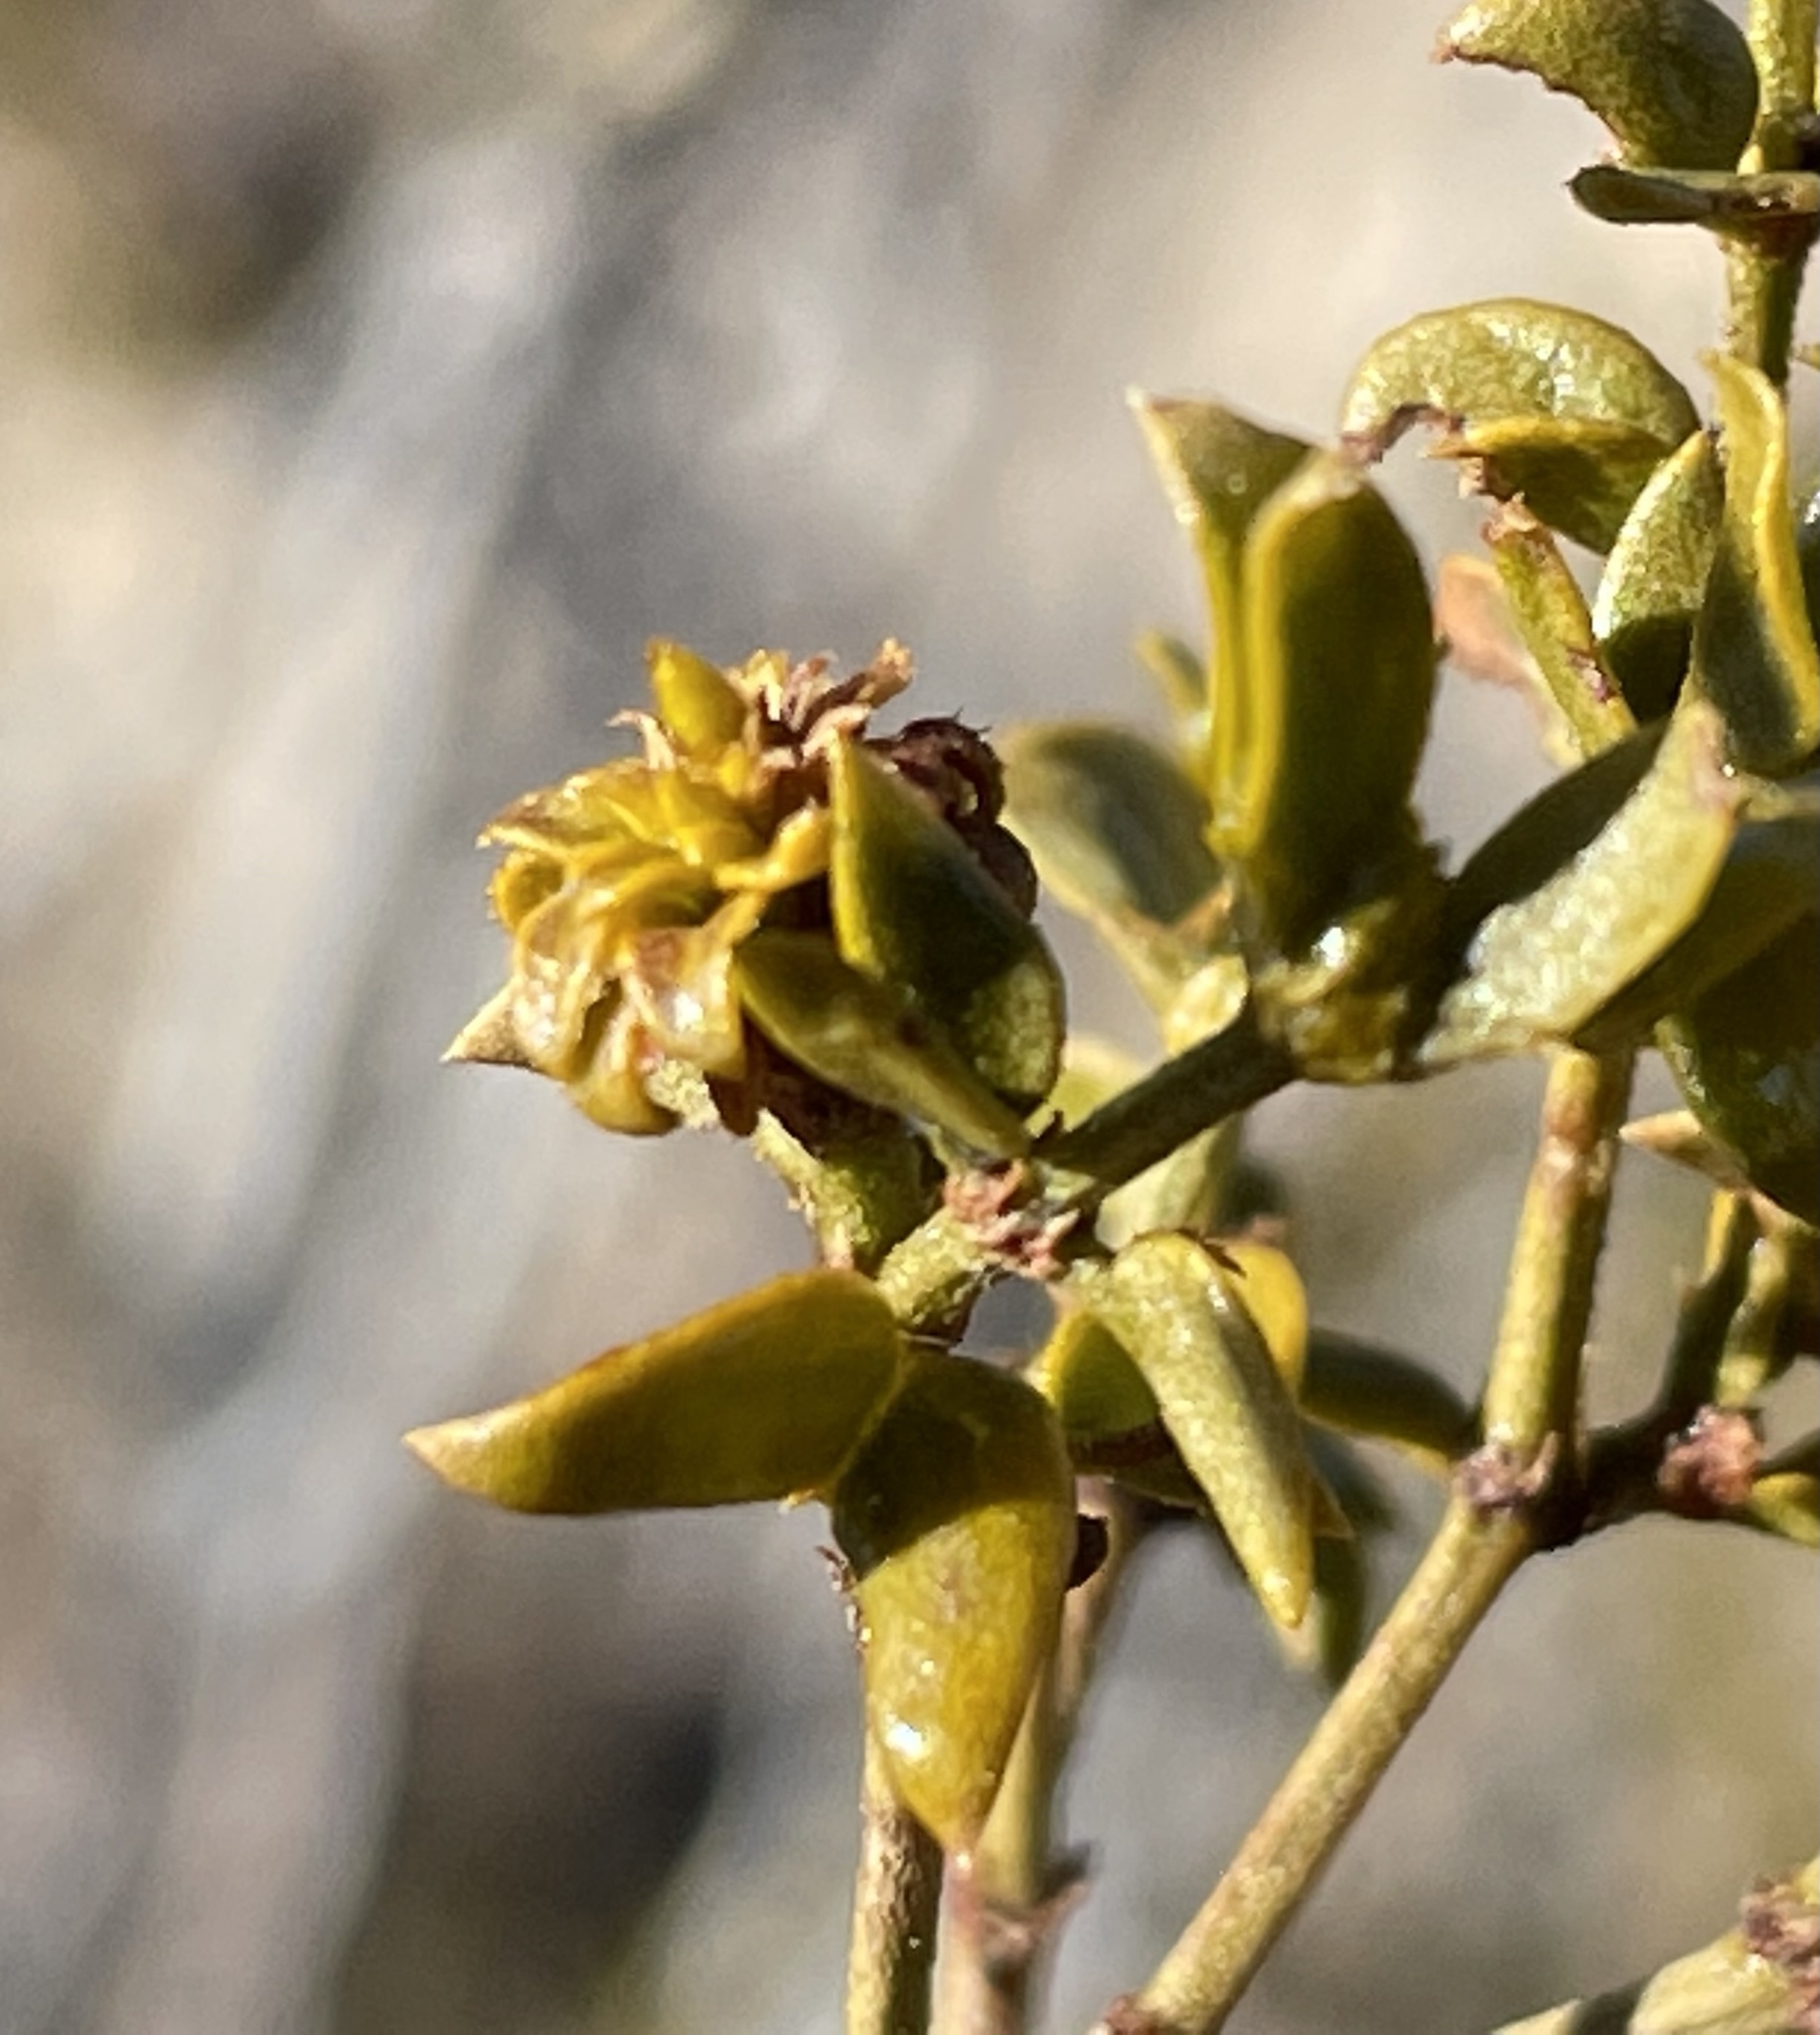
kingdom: Animalia
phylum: Arthropoda
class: Insecta
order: Diptera
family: Cecidomyiidae
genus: Asphondylia
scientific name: Asphondylia rosetta
